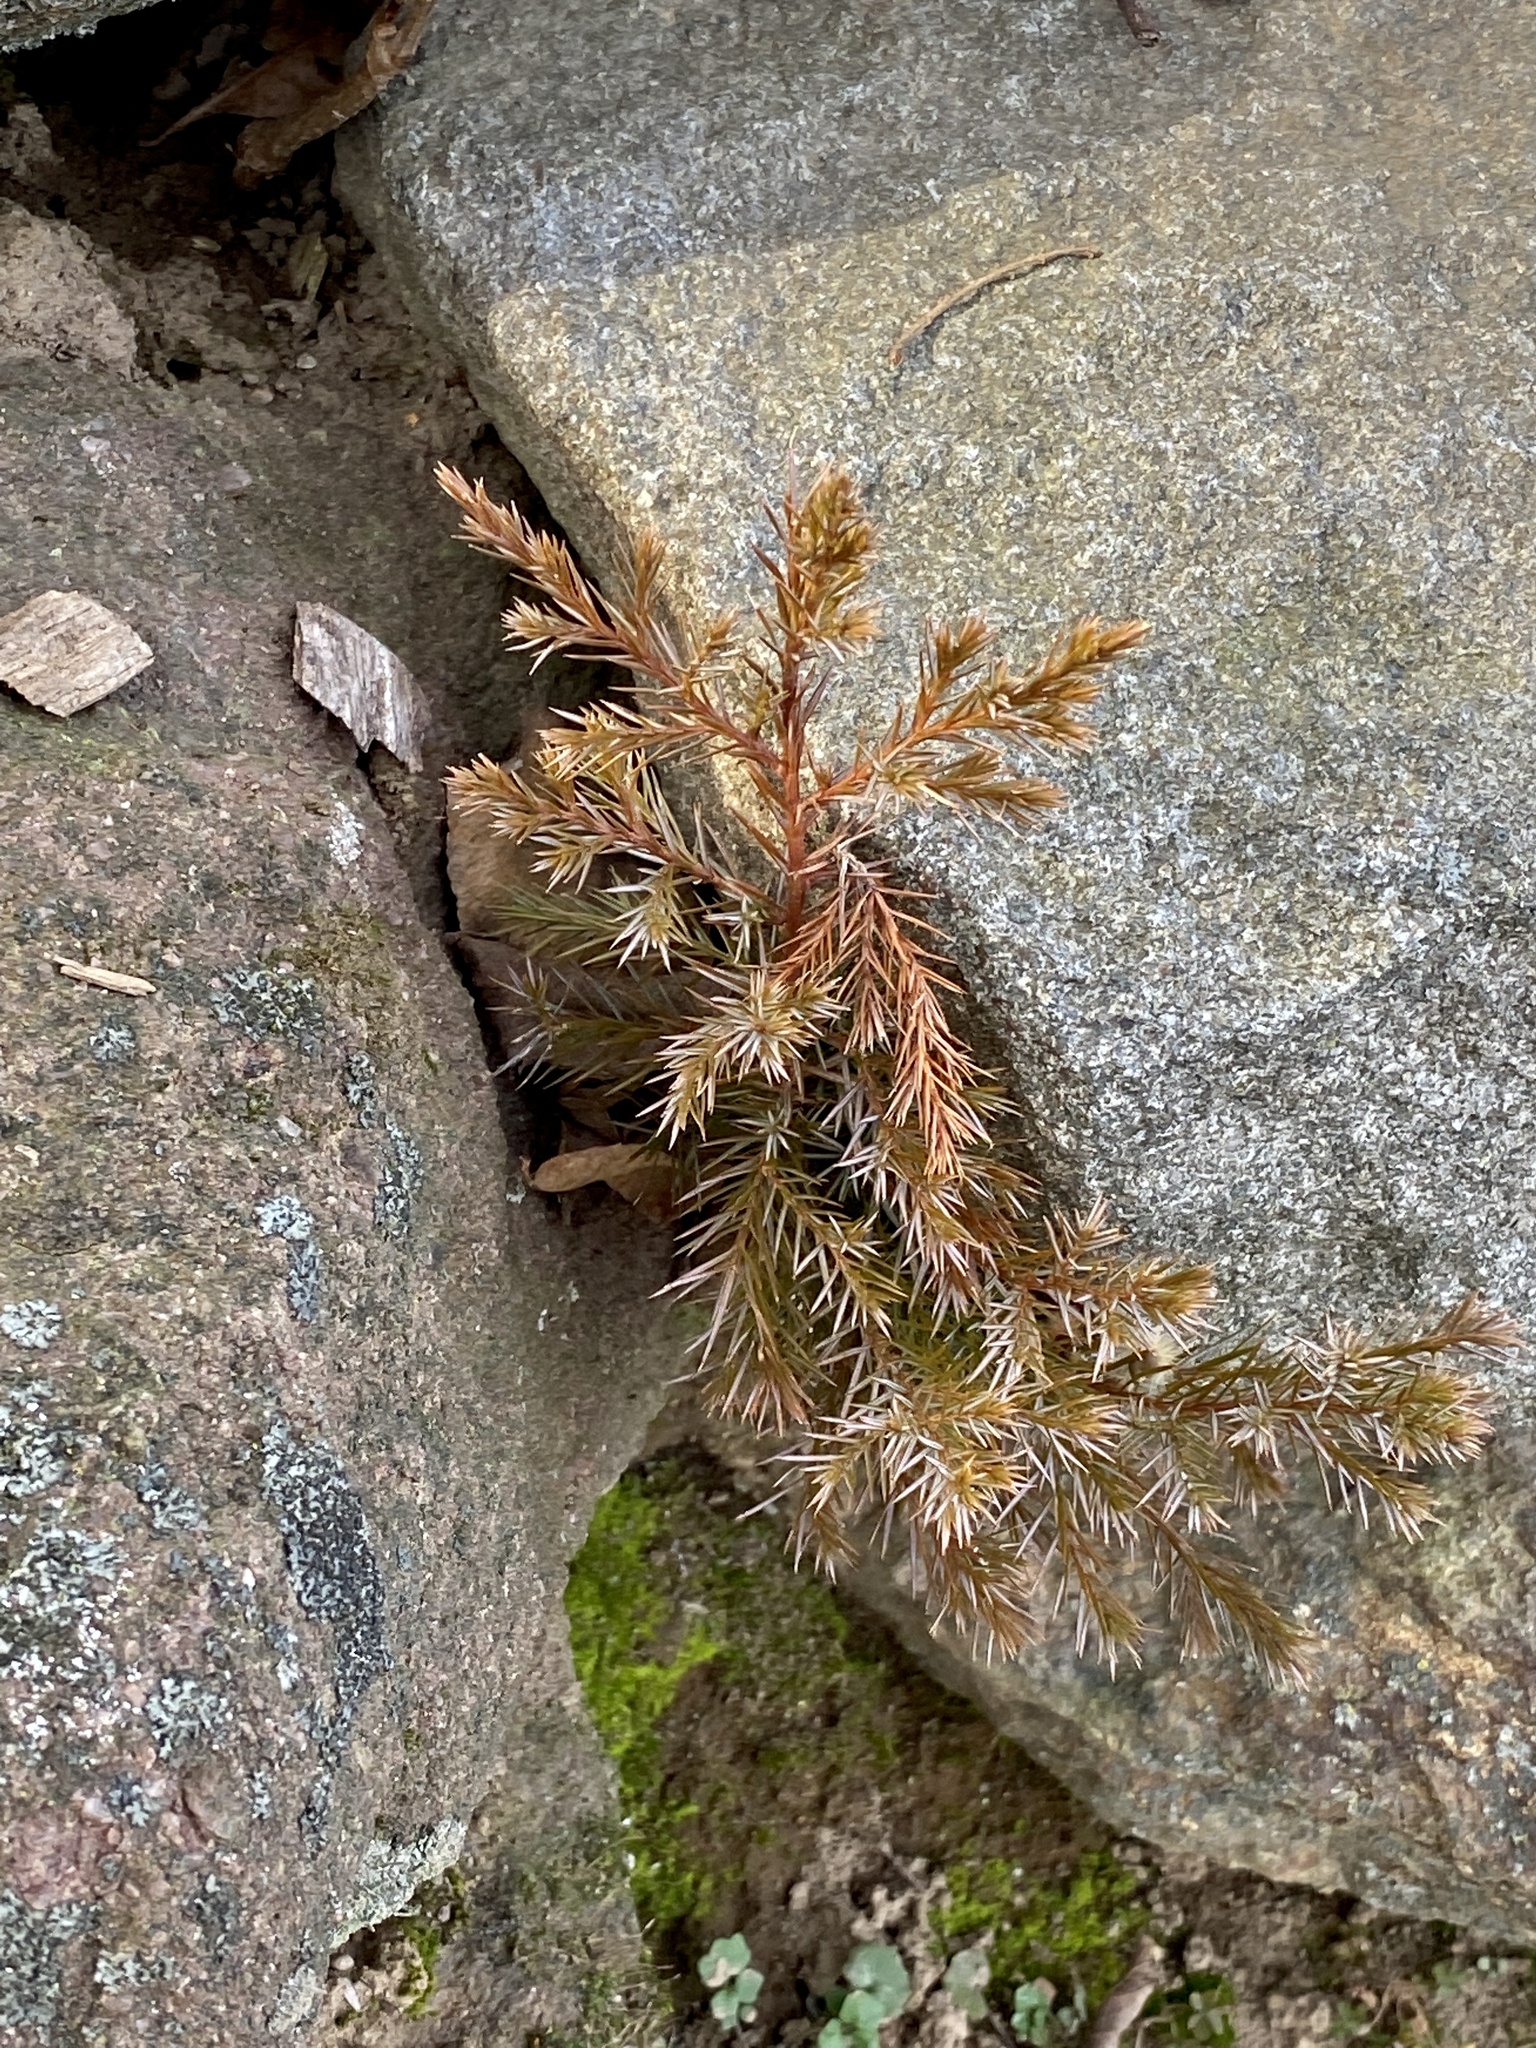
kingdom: Plantae
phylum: Tracheophyta
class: Pinopsida
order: Pinales
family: Cupressaceae
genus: Juniperus
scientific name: Juniperus virginiana
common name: Red juniper
